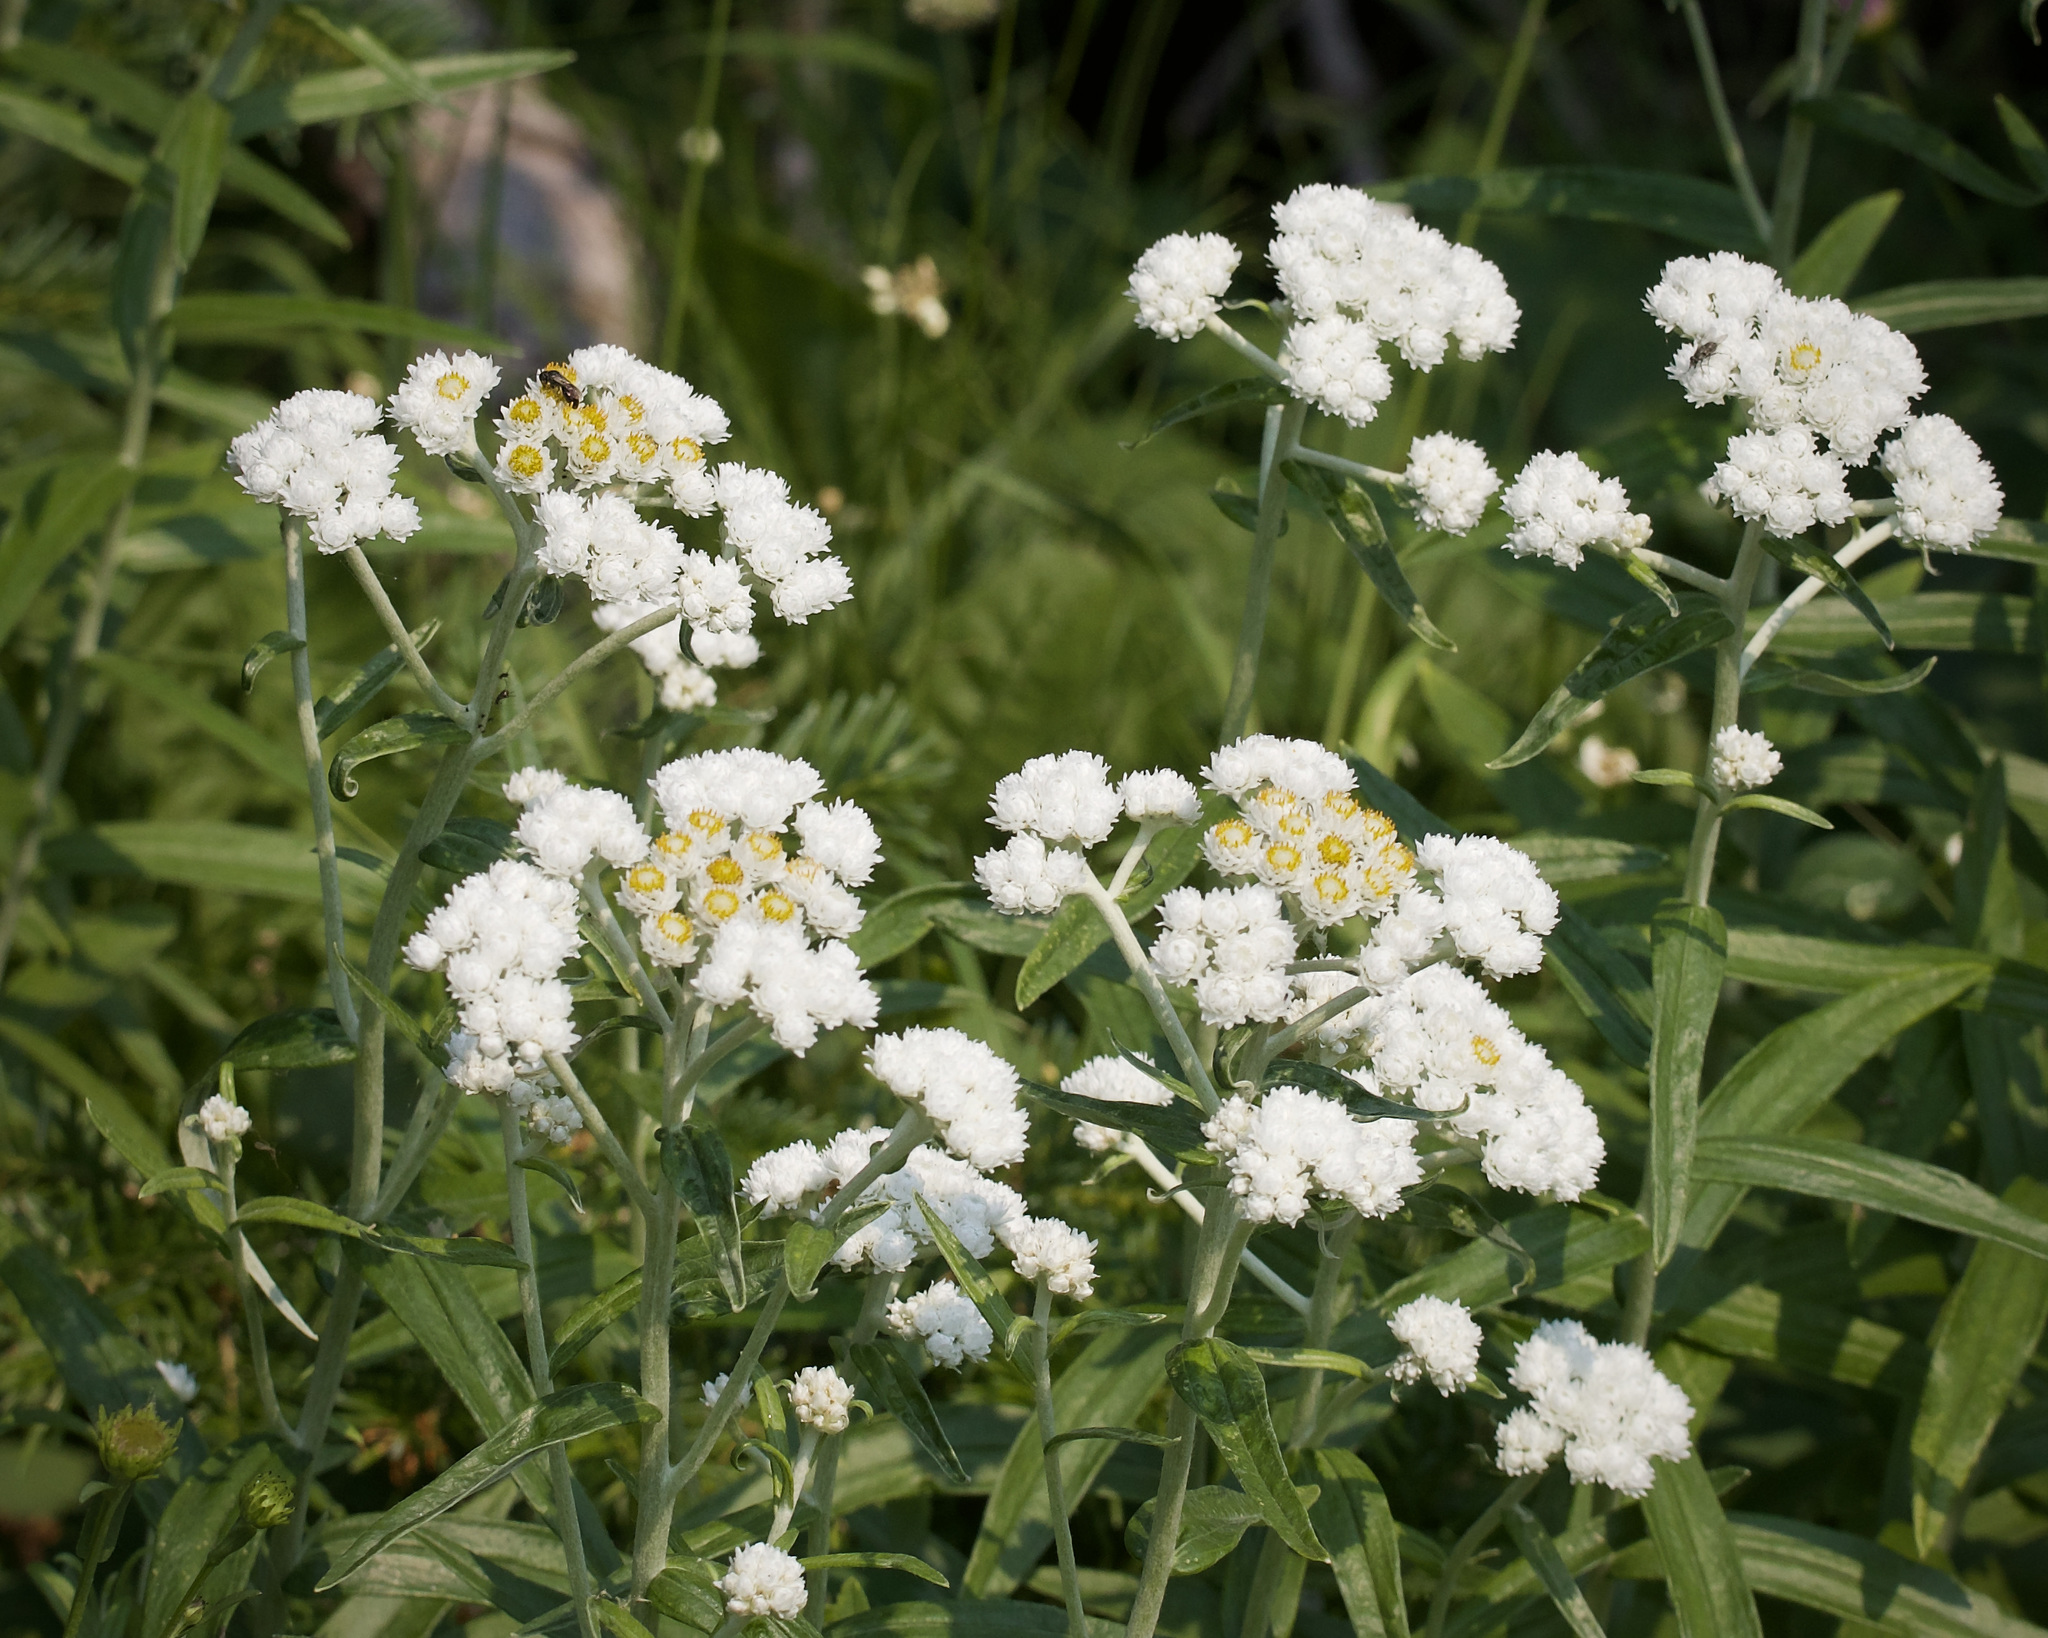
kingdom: Plantae
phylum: Tracheophyta
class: Magnoliopsida
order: Asterales
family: Asteraceae
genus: Anaphalis
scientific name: Anaphalis margaritacea
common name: Pearly everlasting
